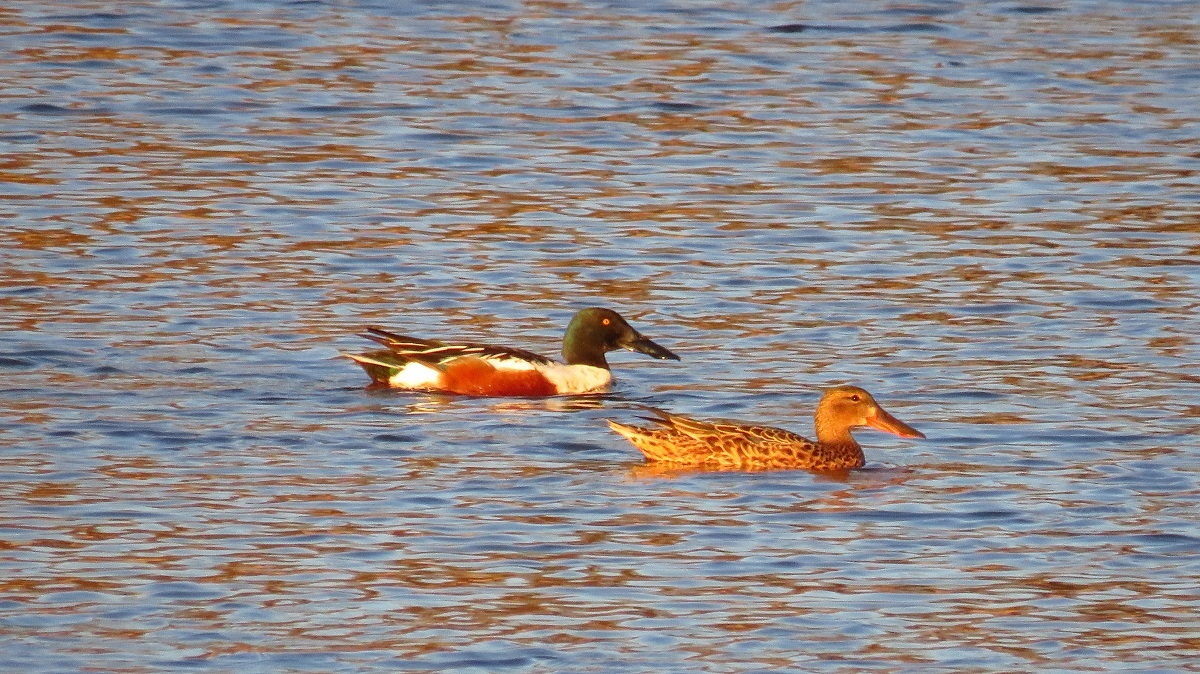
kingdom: Animalia
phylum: Chordata
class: Aves
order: Anseriformes
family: Anatidae
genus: Spatula
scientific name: Spatula clypeata
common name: Northern shoveler
